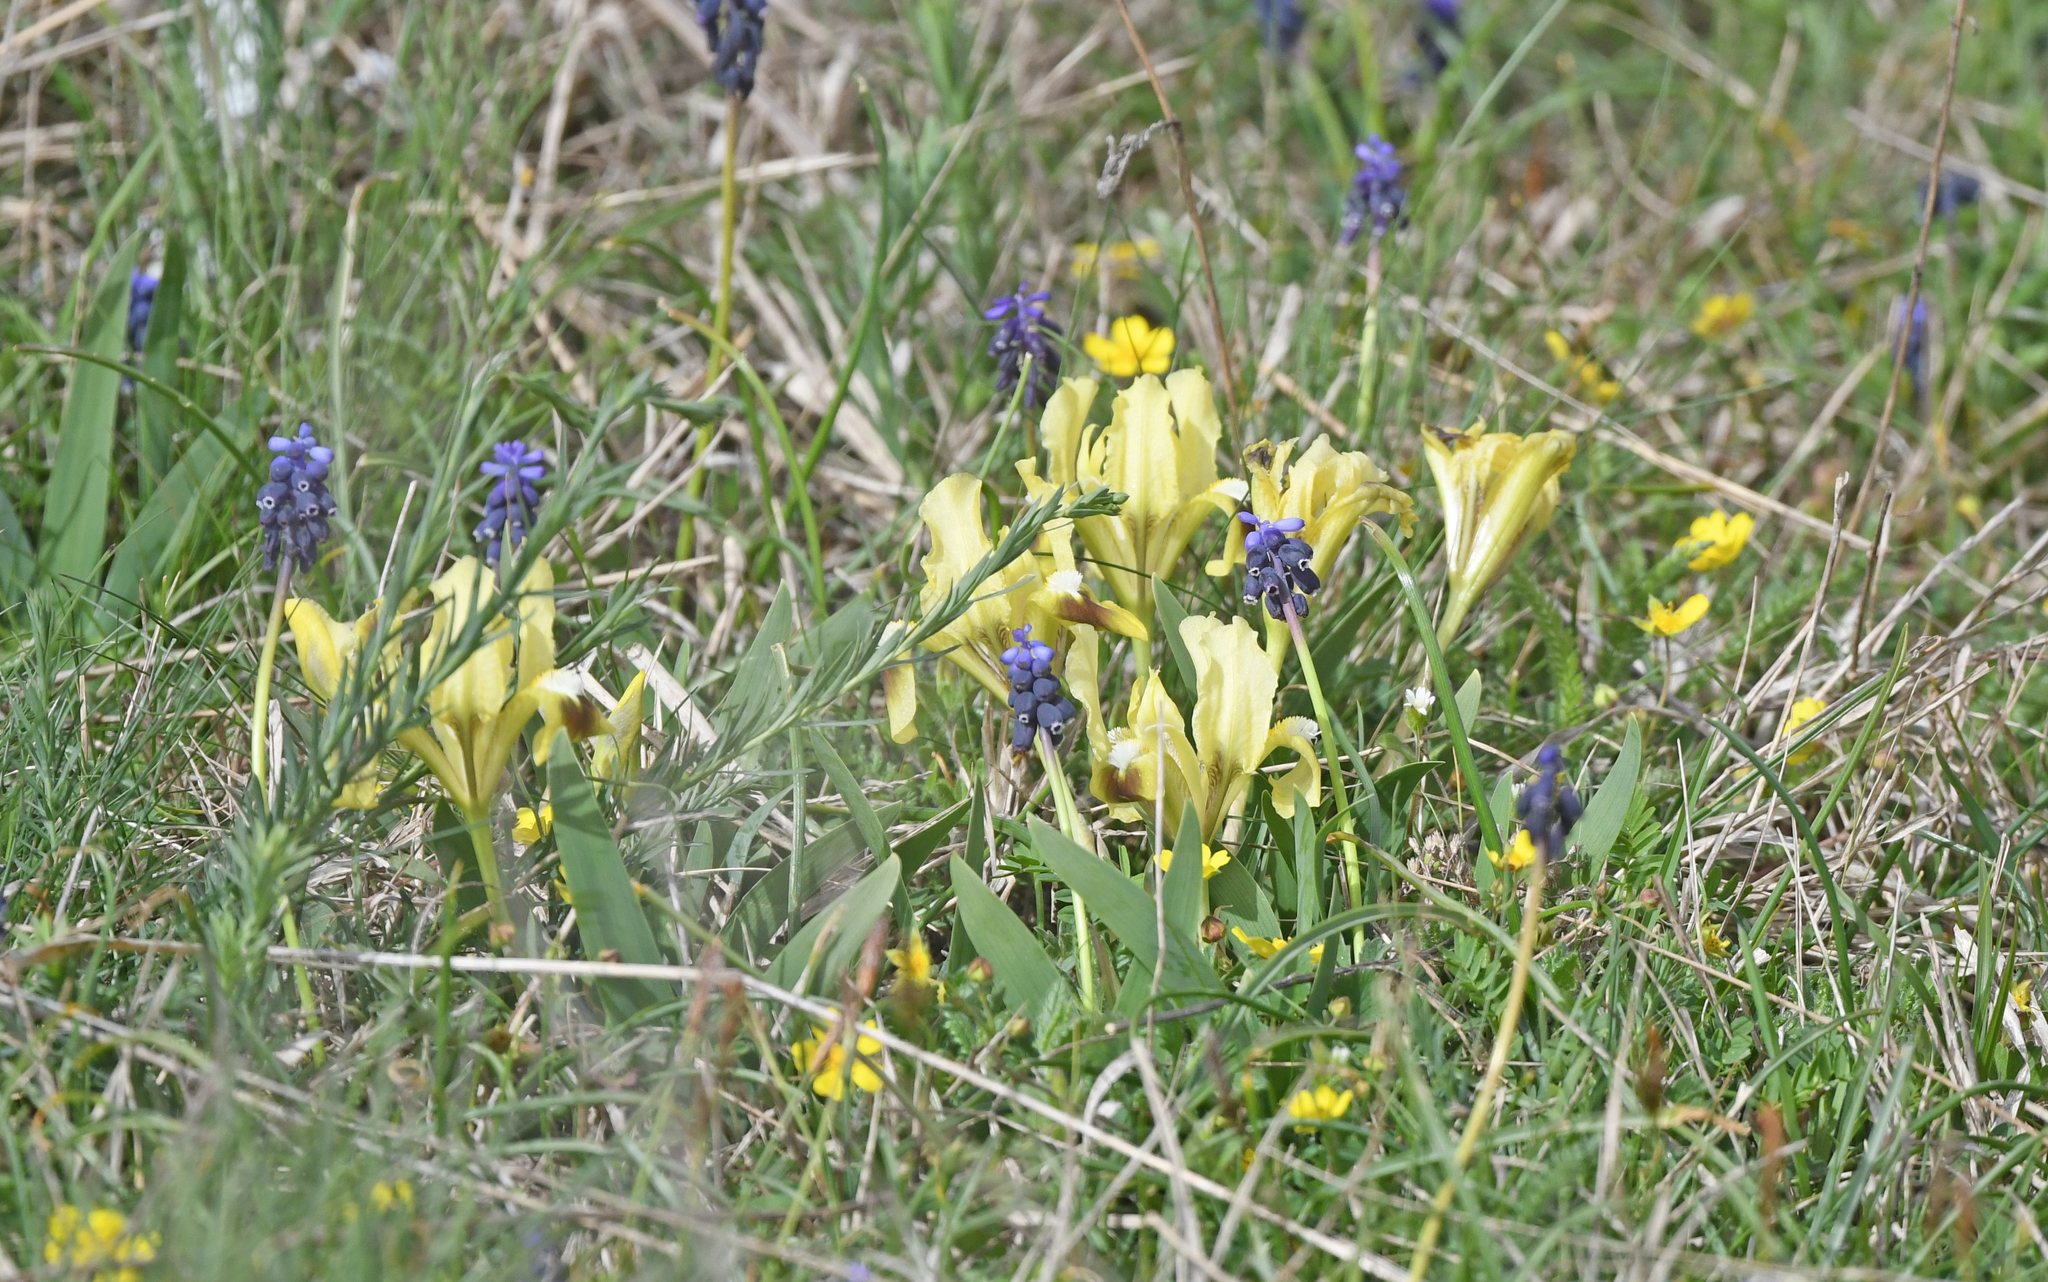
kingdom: Plantae
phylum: Tracheophyta
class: Liliopsida
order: Asparagales
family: Iridaceae
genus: Iris
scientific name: Iris pumila
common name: Dwarf iris
